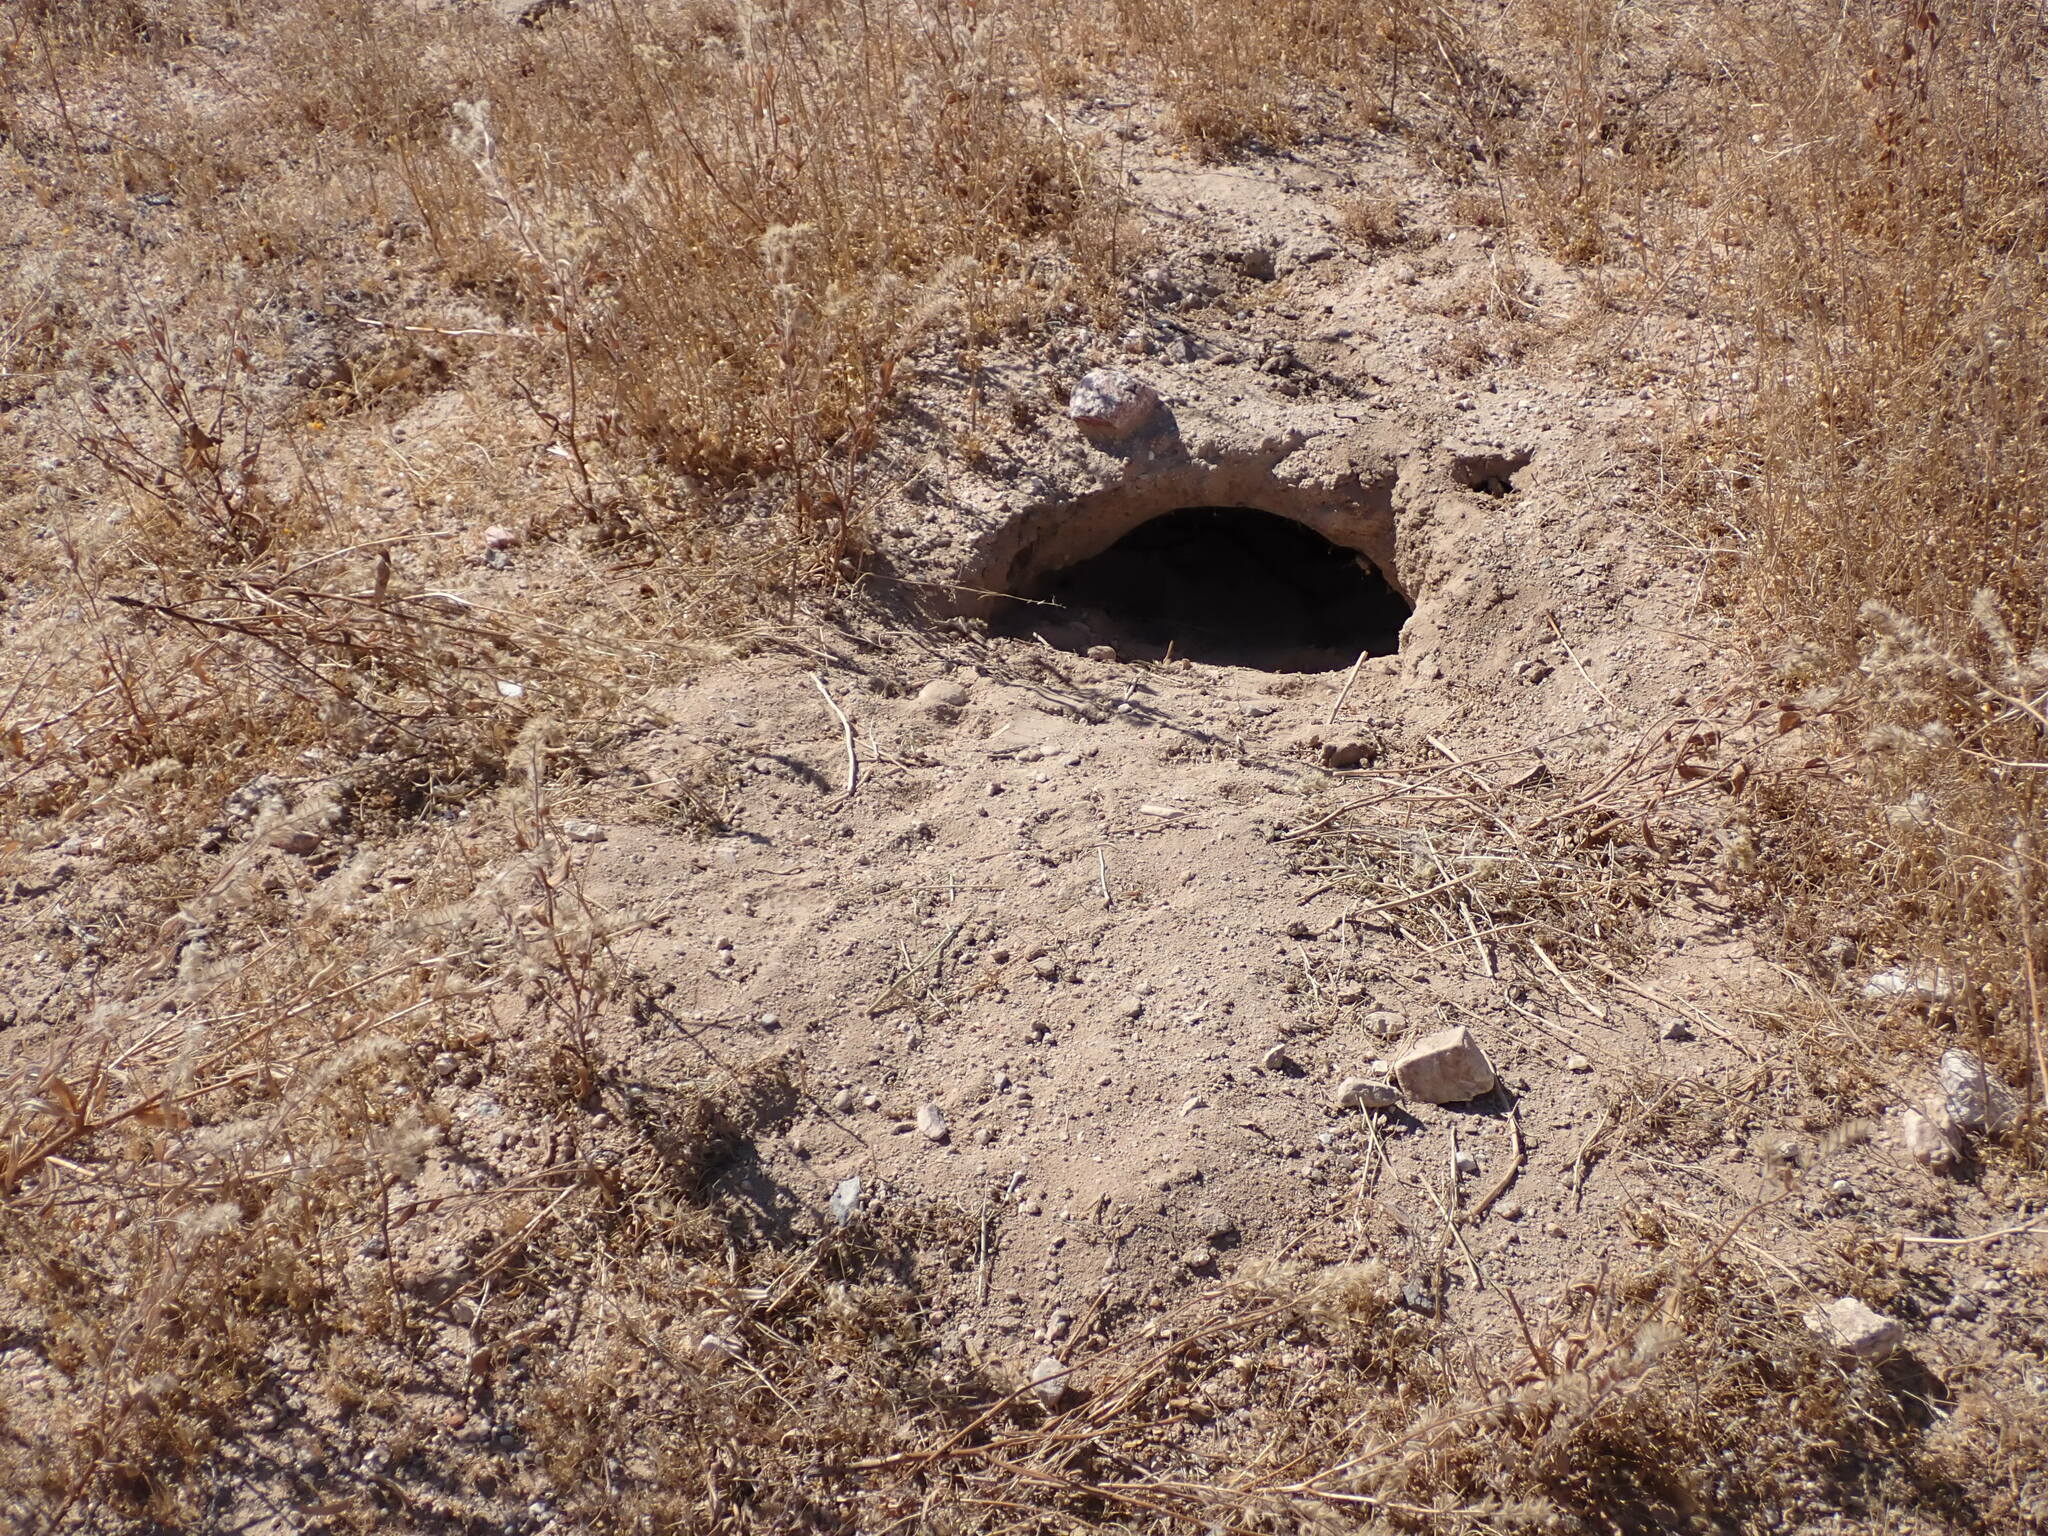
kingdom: Animalia
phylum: Chordata
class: Testudines
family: Testudinidae
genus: Gopherus
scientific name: Gopherus agassizii
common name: Mojave desert tortoise
